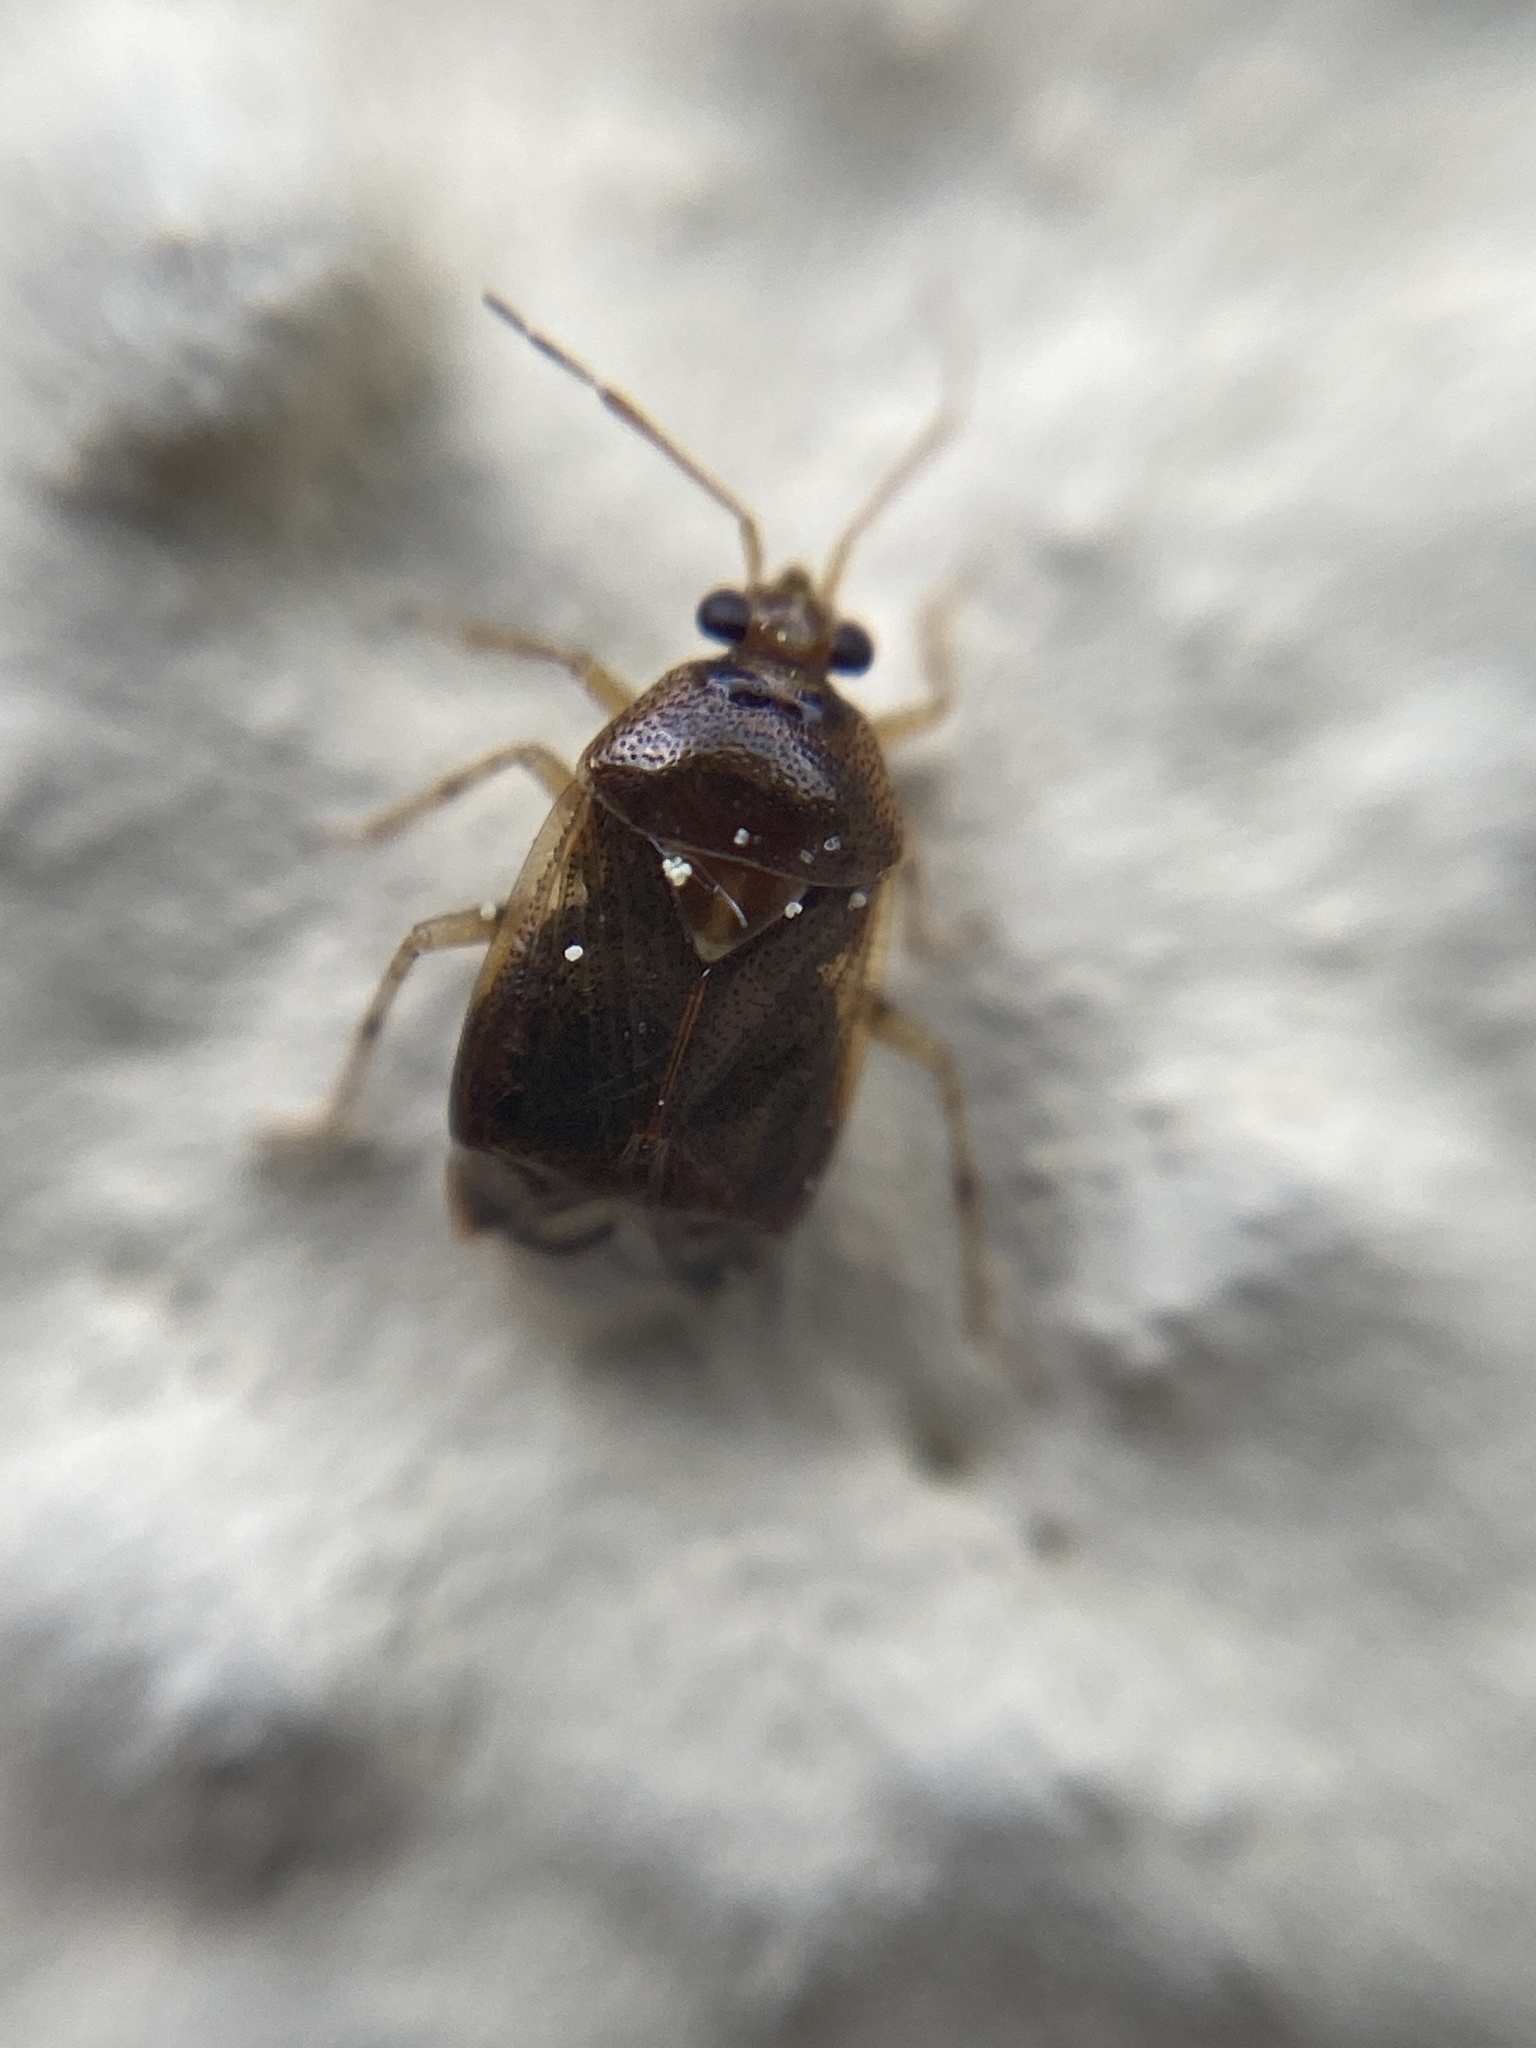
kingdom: Animalia
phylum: Arthropoda
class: Insecta
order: Hemiptera
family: Miridae
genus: Deraeocoris
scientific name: Deraeocoris lutescens
